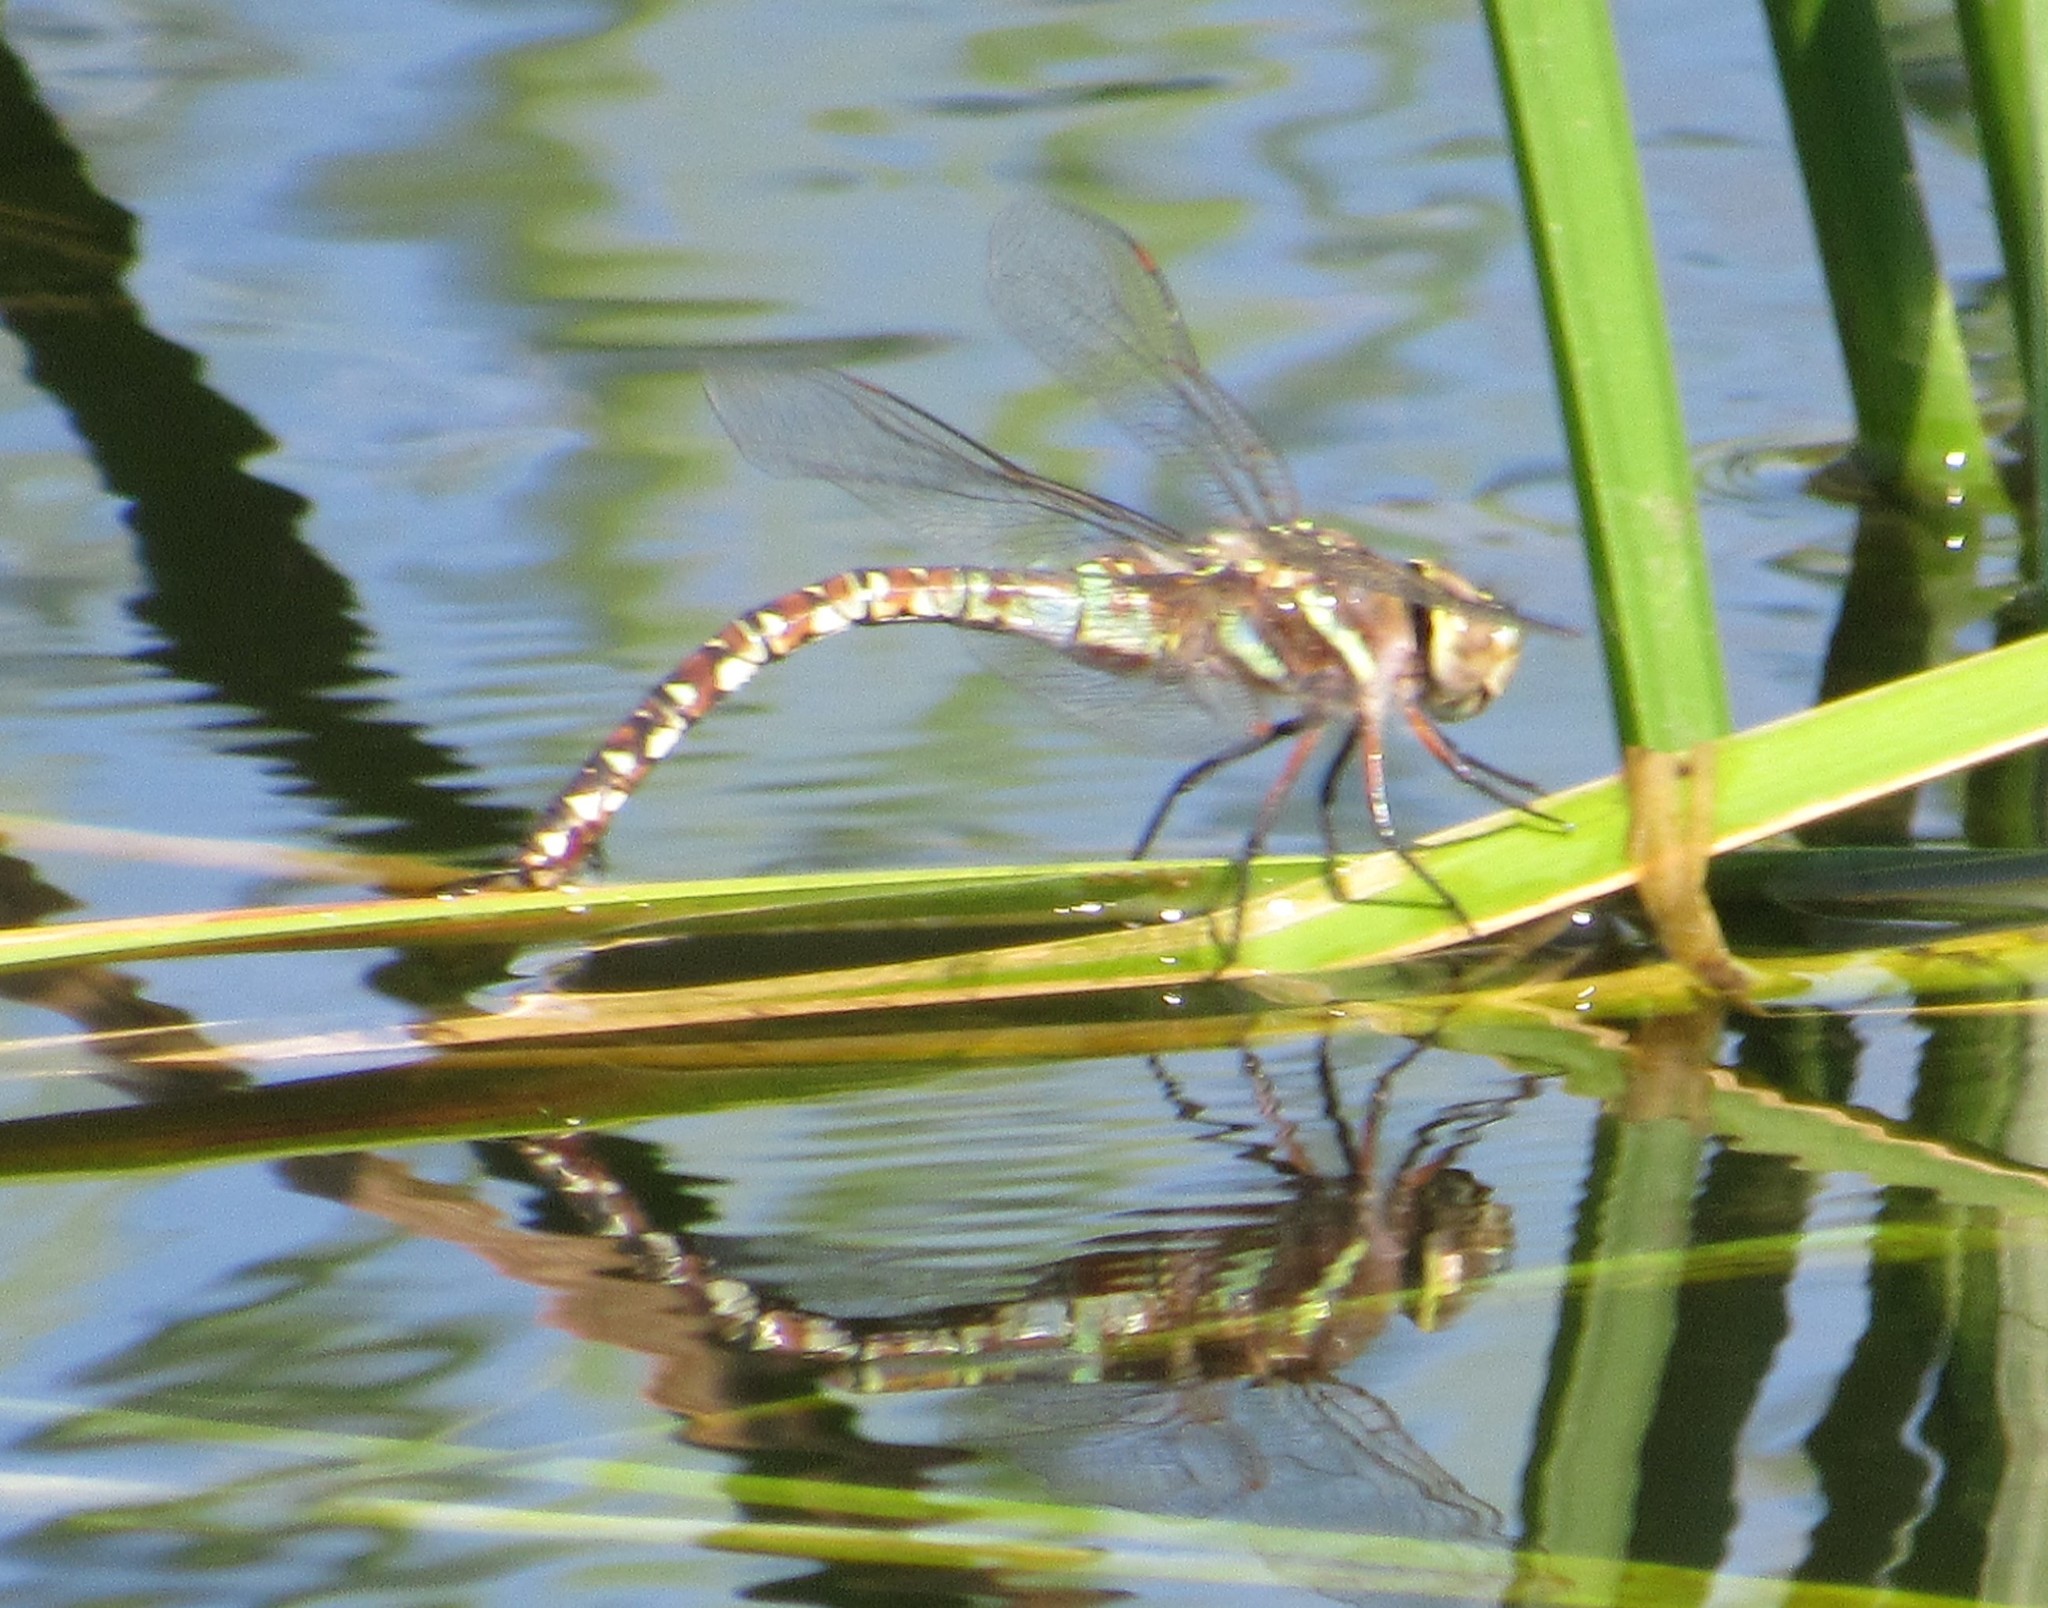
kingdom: Animalia
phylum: Arthropoda
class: Insecta
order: Odonata
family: Aeshnidae
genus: Rhionaeschna
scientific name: Rhionaeschna multicolor
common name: Blue-eyed darner
